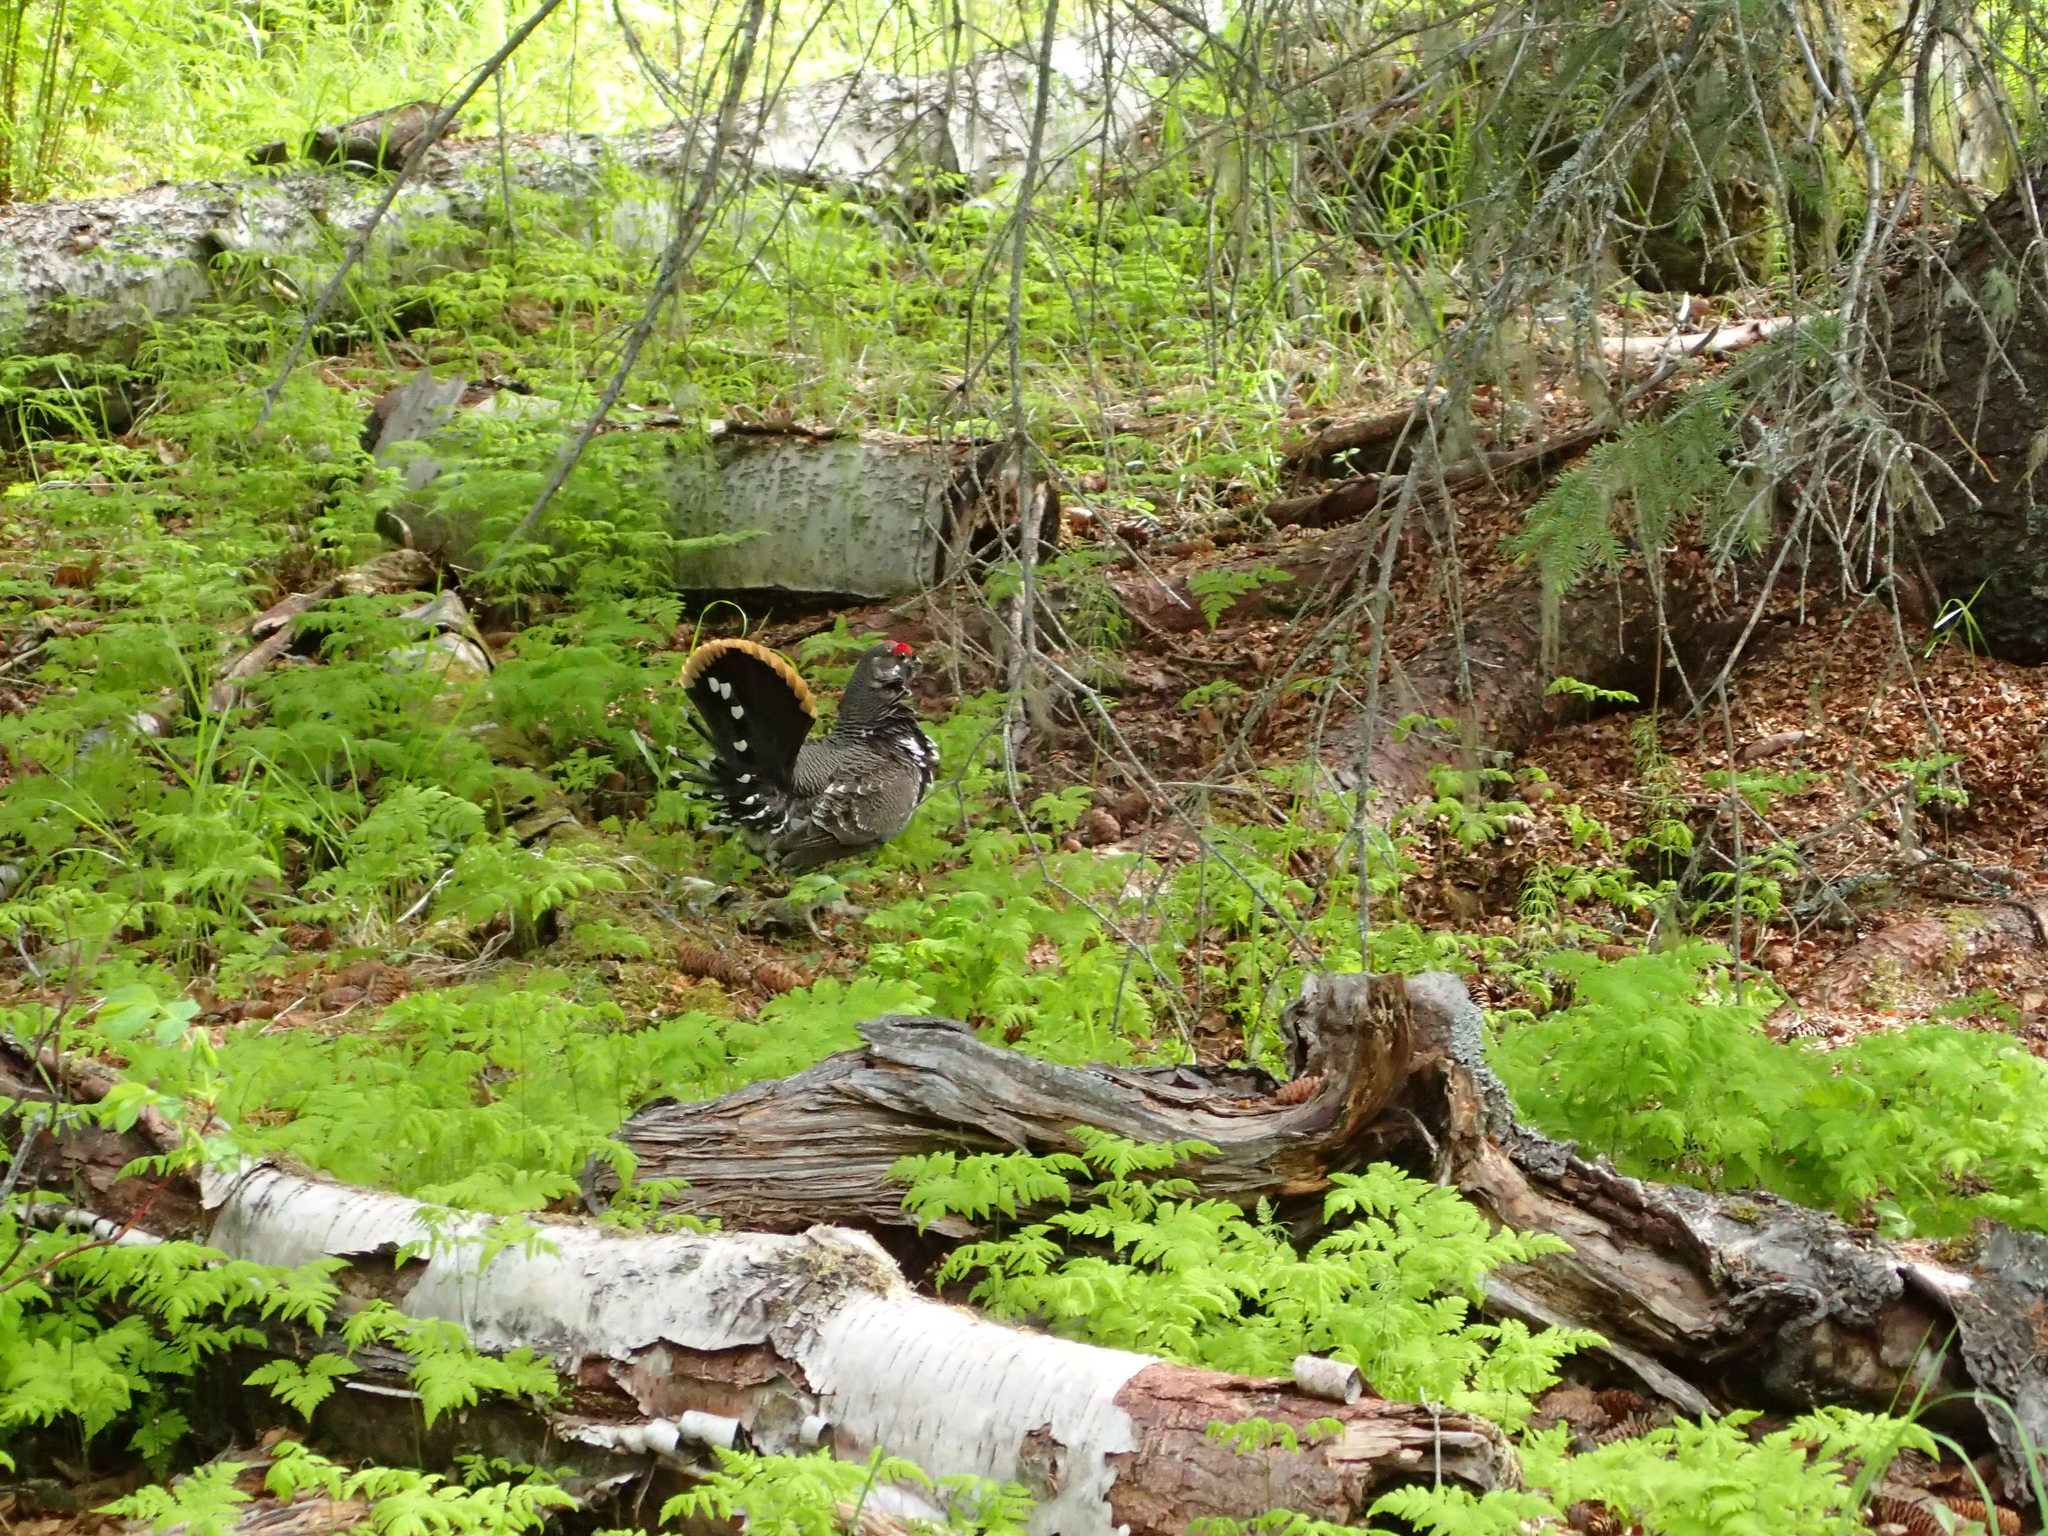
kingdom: Animalia
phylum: Chordata
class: Aves
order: Galliformes
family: Phasianidae
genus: Canachites
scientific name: Canachites canadensis
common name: Spruce grouse
